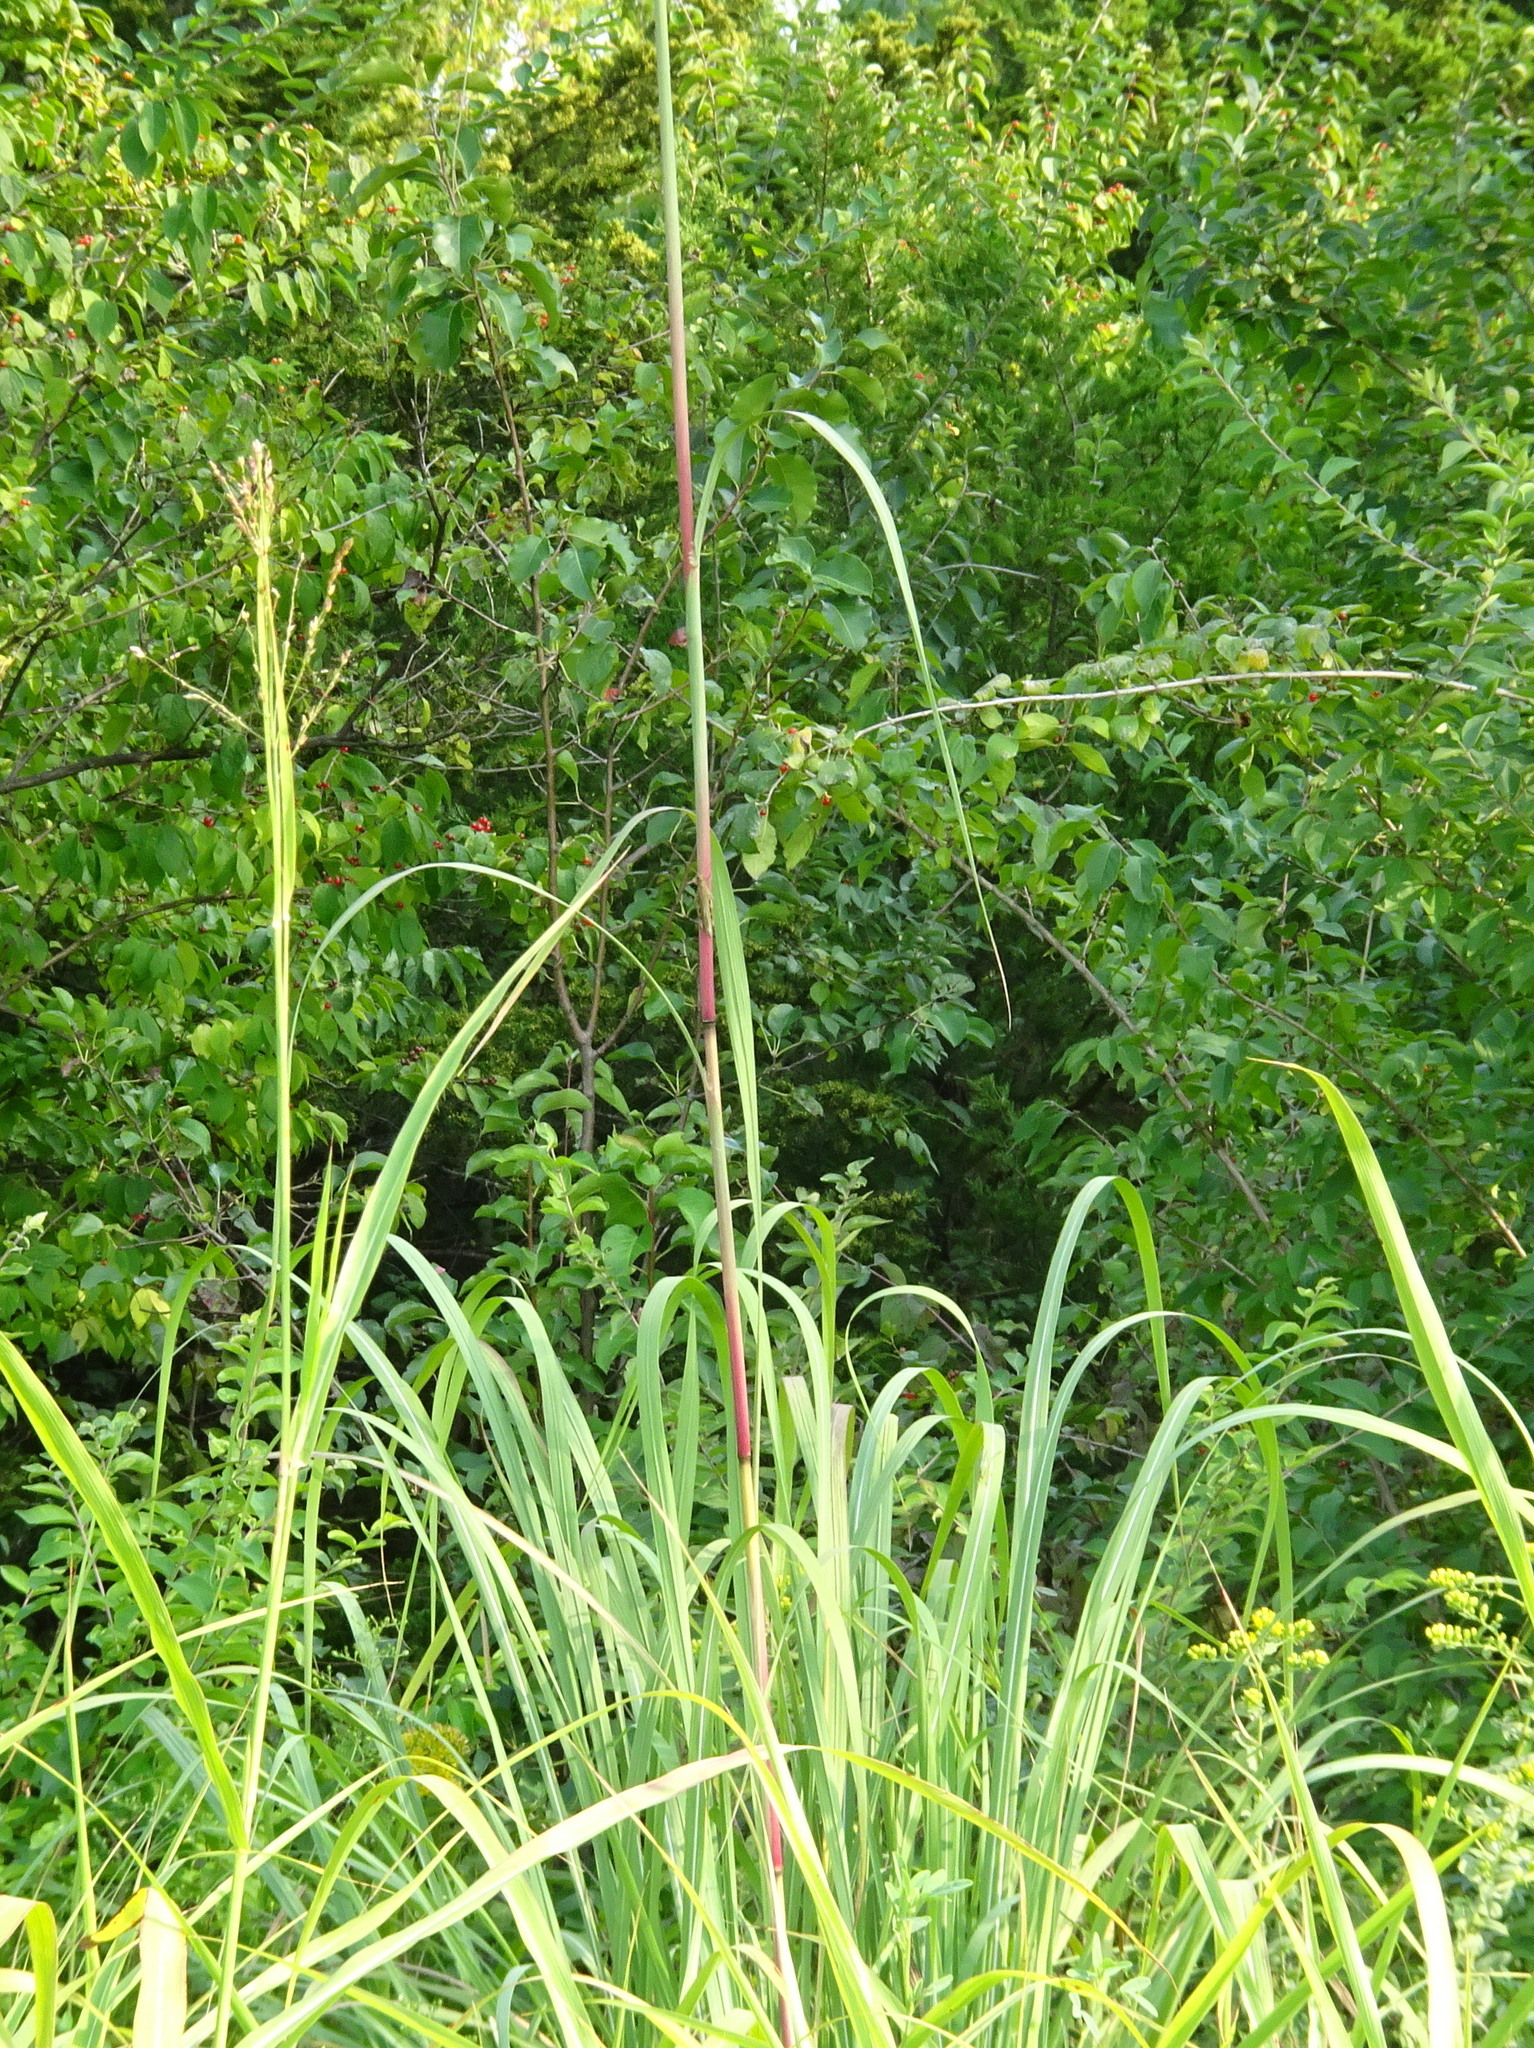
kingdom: Plantae
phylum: Tracheophyta
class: Liliopsida
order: Poales
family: Poaceae
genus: Sorghastrum
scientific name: Sorghastrum nutans
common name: Indian grass
